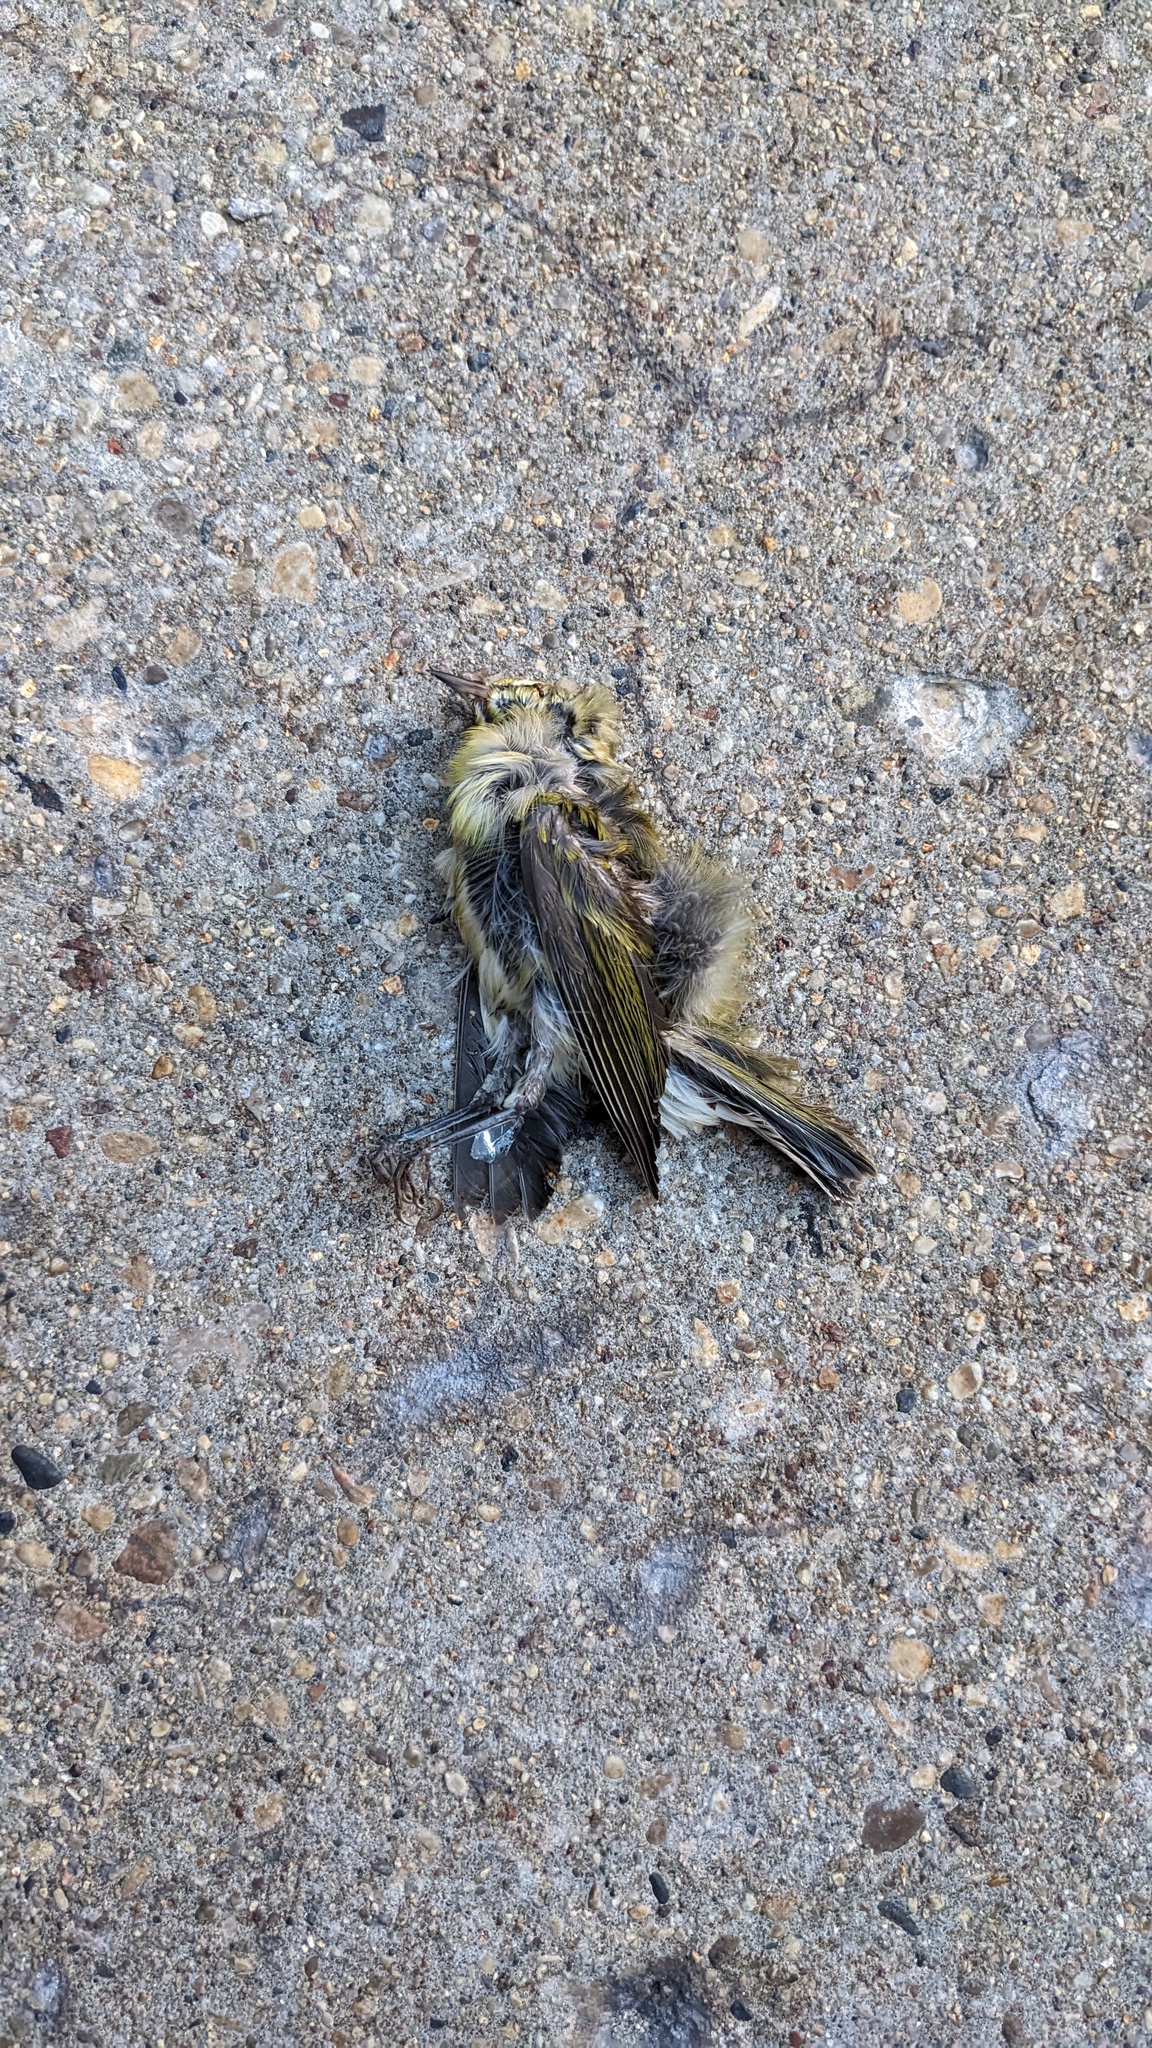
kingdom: Animalia
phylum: Chordata
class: Aves
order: Passeriformes
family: Parulidae
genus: Leiothlypis
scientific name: Leiothlypis peregrina
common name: Tennessee warbler
